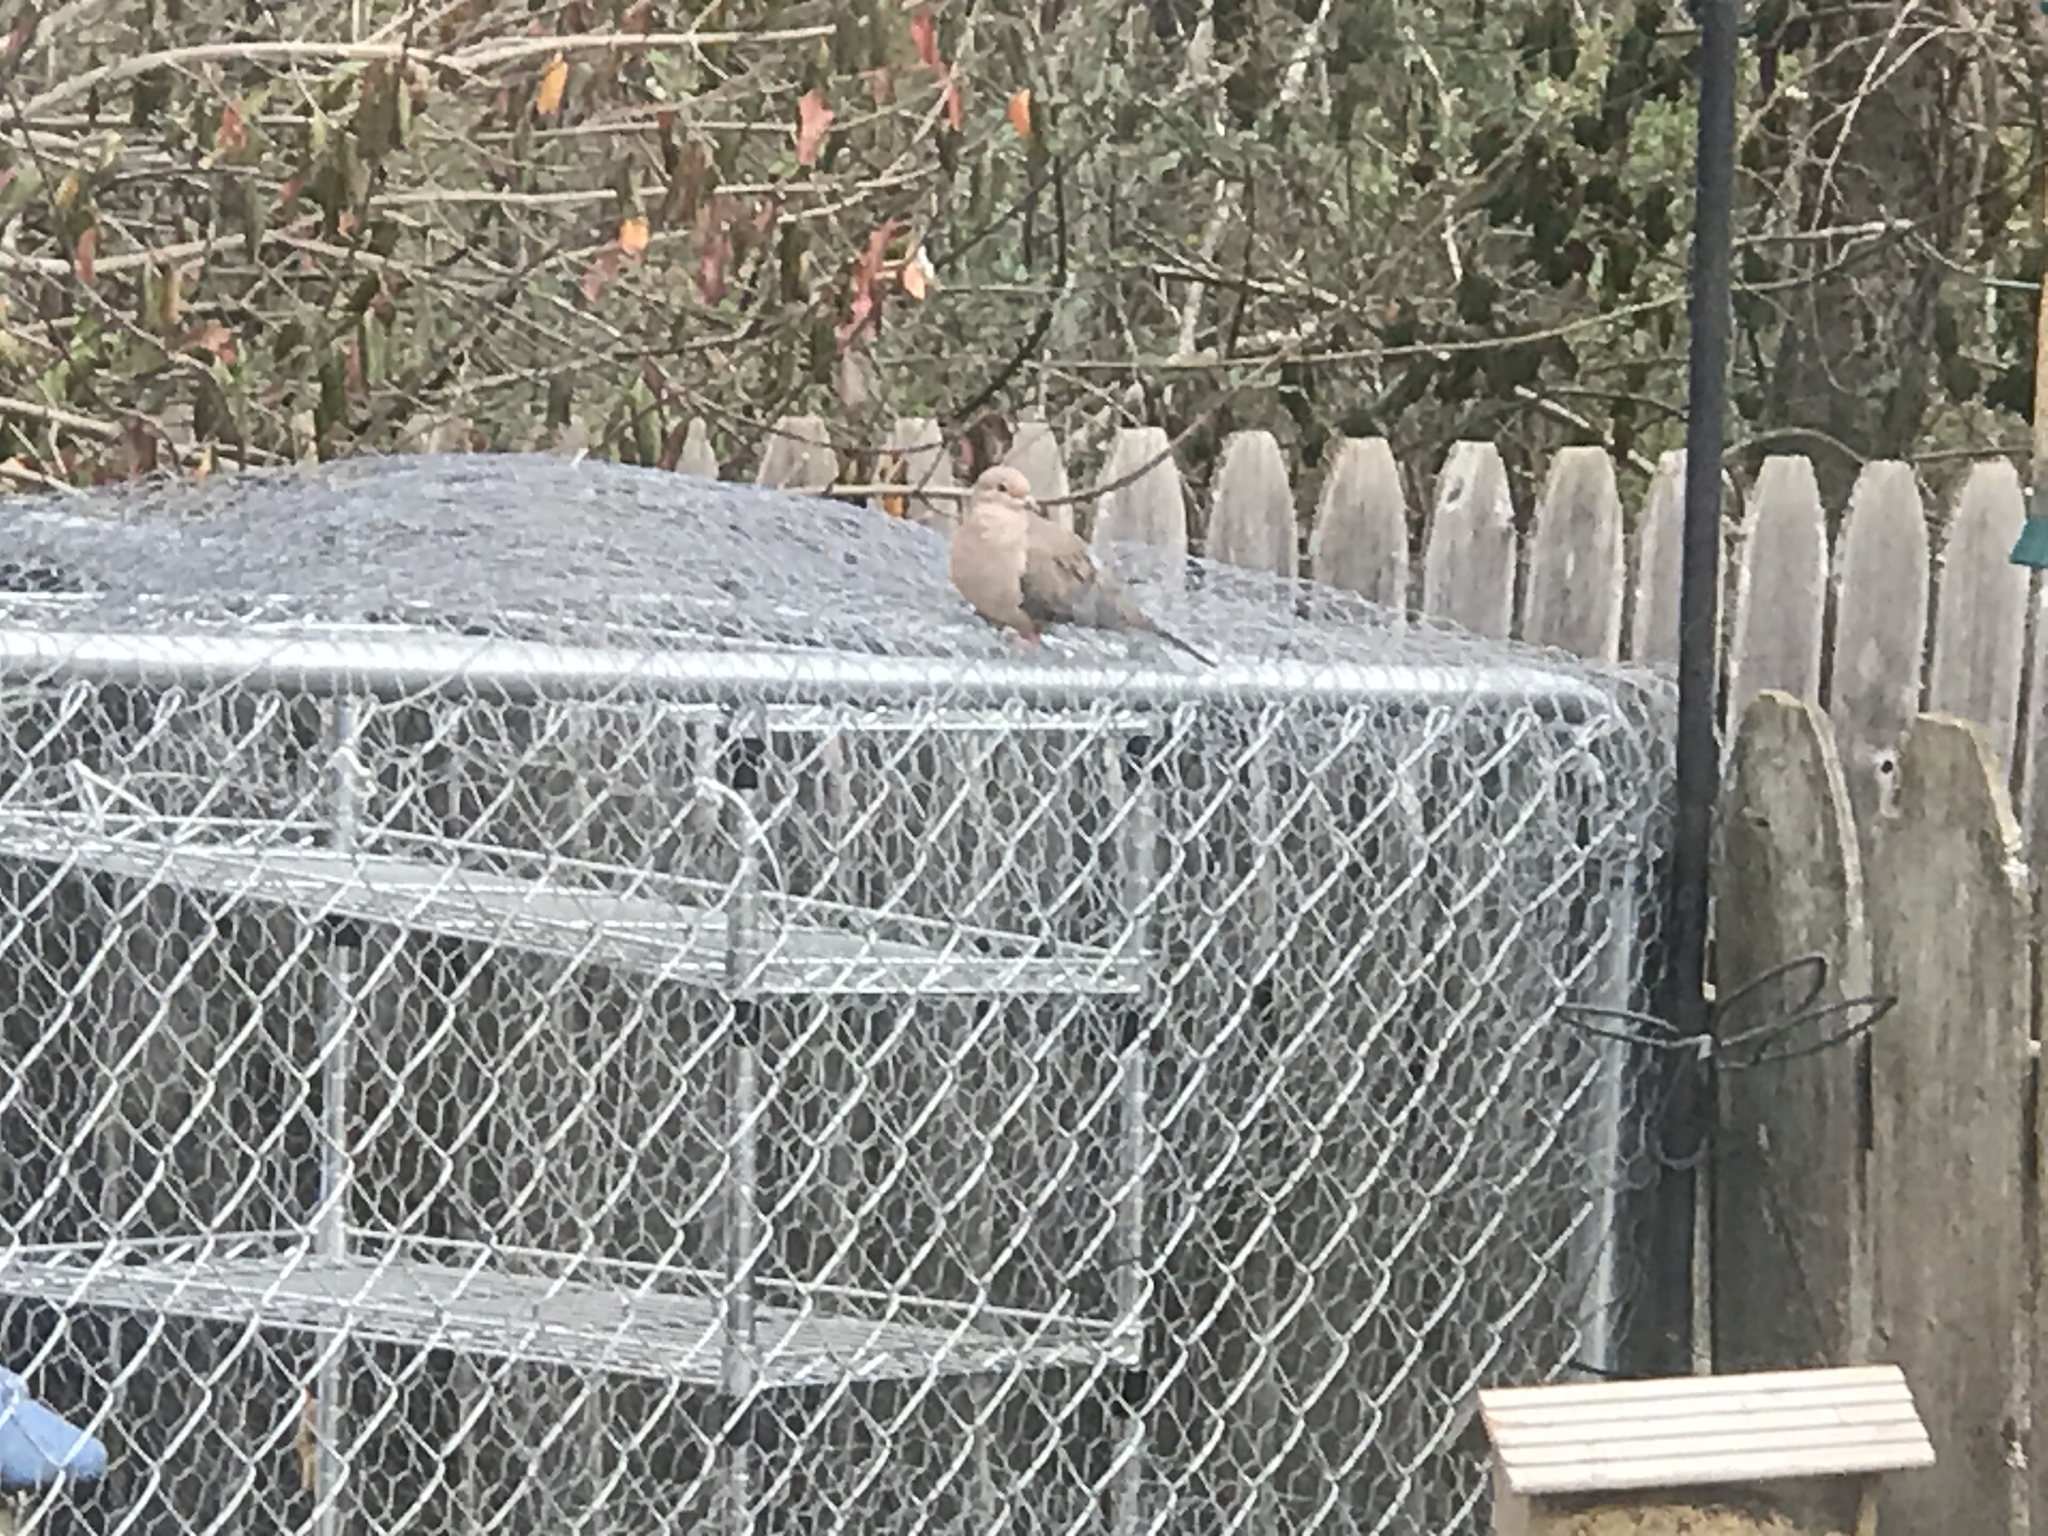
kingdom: Animalia
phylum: Chordata
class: Aves
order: Columbiformes
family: Columbidae
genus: Zenaida
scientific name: Zenaida macroura
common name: Mourning dove
